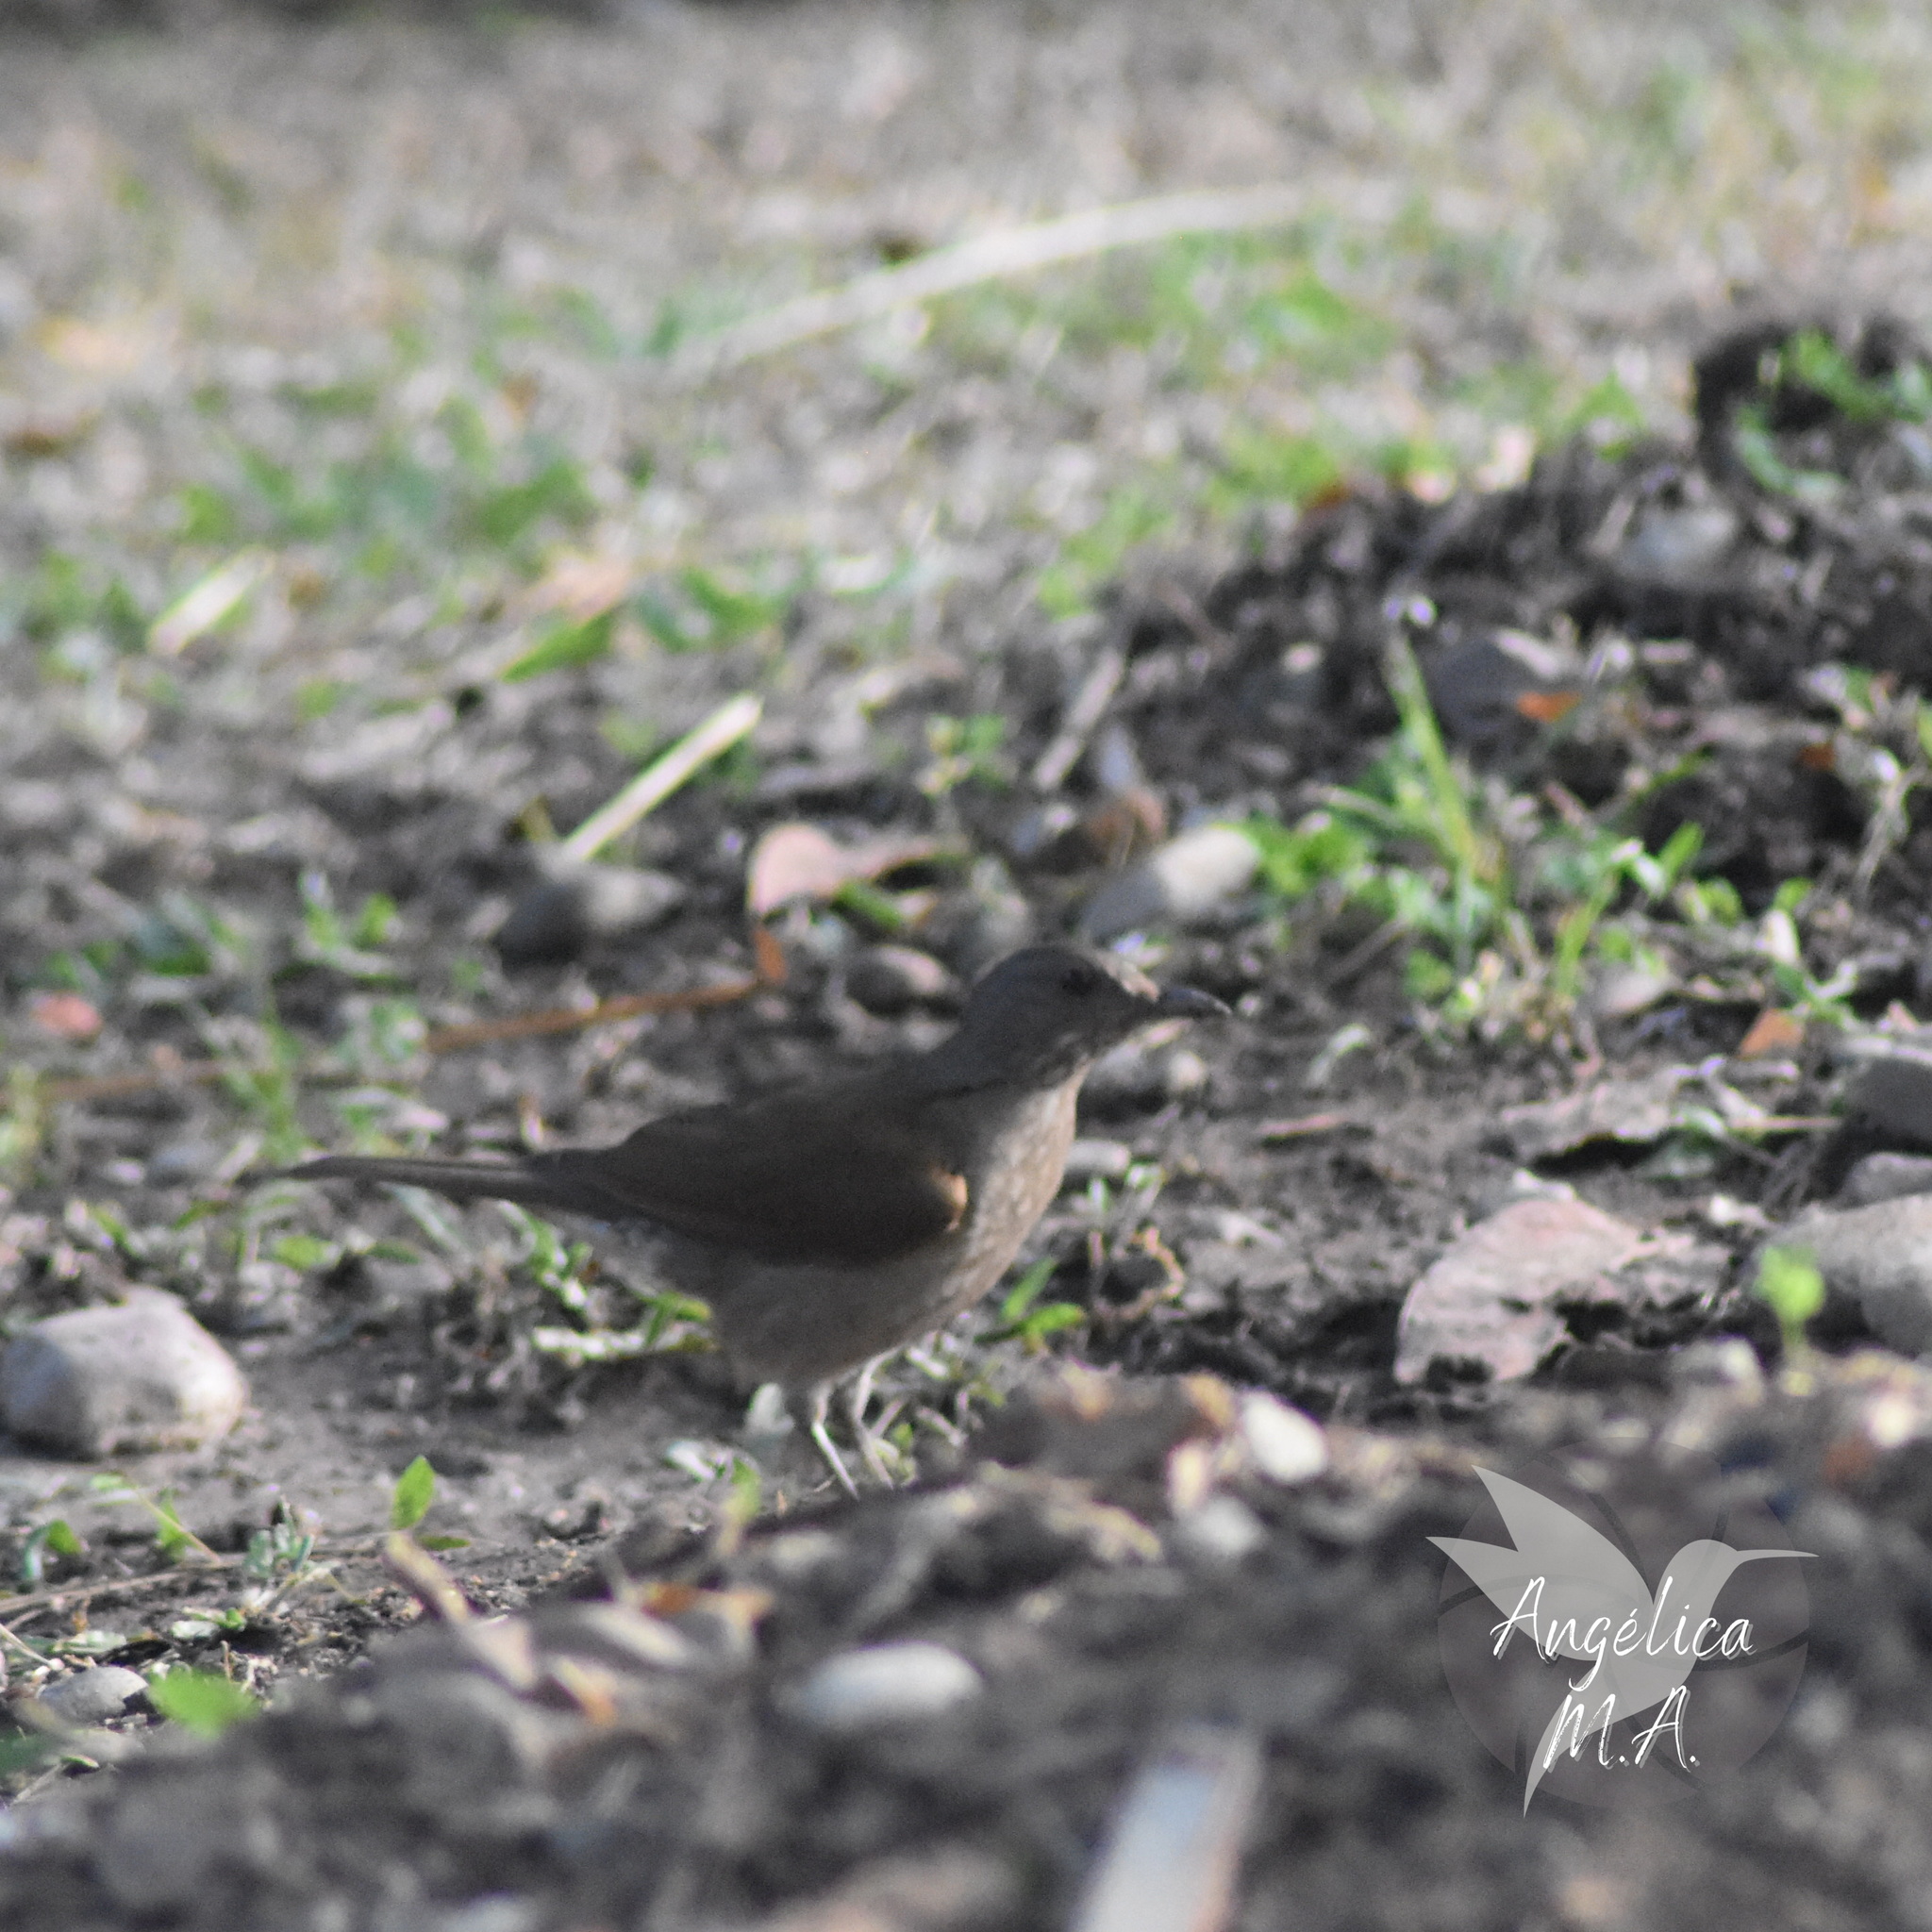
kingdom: Animalia
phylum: Chordata
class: Aves
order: Passeriformes
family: Turdidae
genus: Turdus
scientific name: Turdus leucomelas
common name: Pale-breasted thrush
